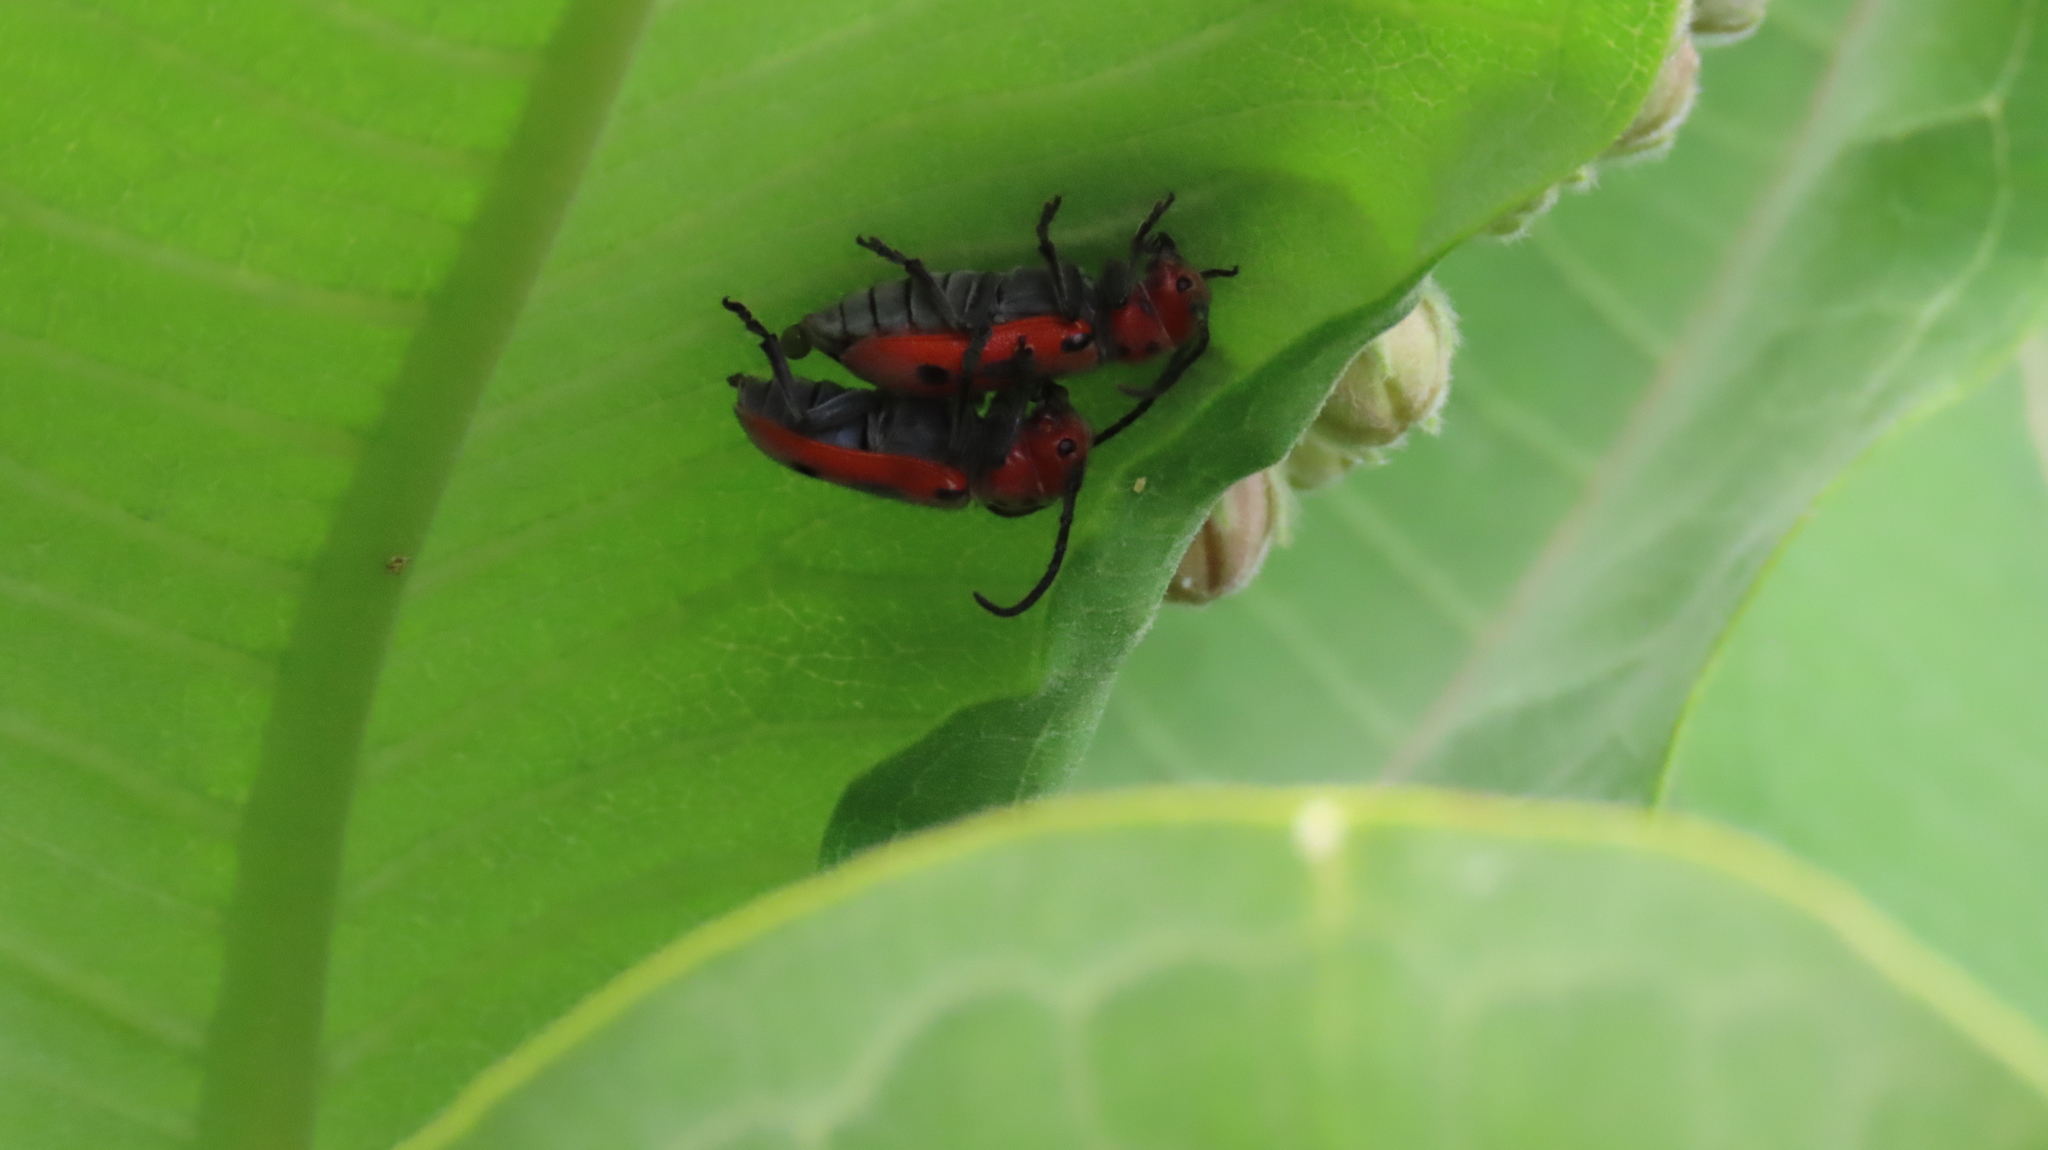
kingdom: Animalia
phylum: Arthropoda
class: Insecta
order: Coleoptera
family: Cerambycidae
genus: Tetraopes
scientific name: Tetraopes tetrophthalmus
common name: Red milkweed beetle
